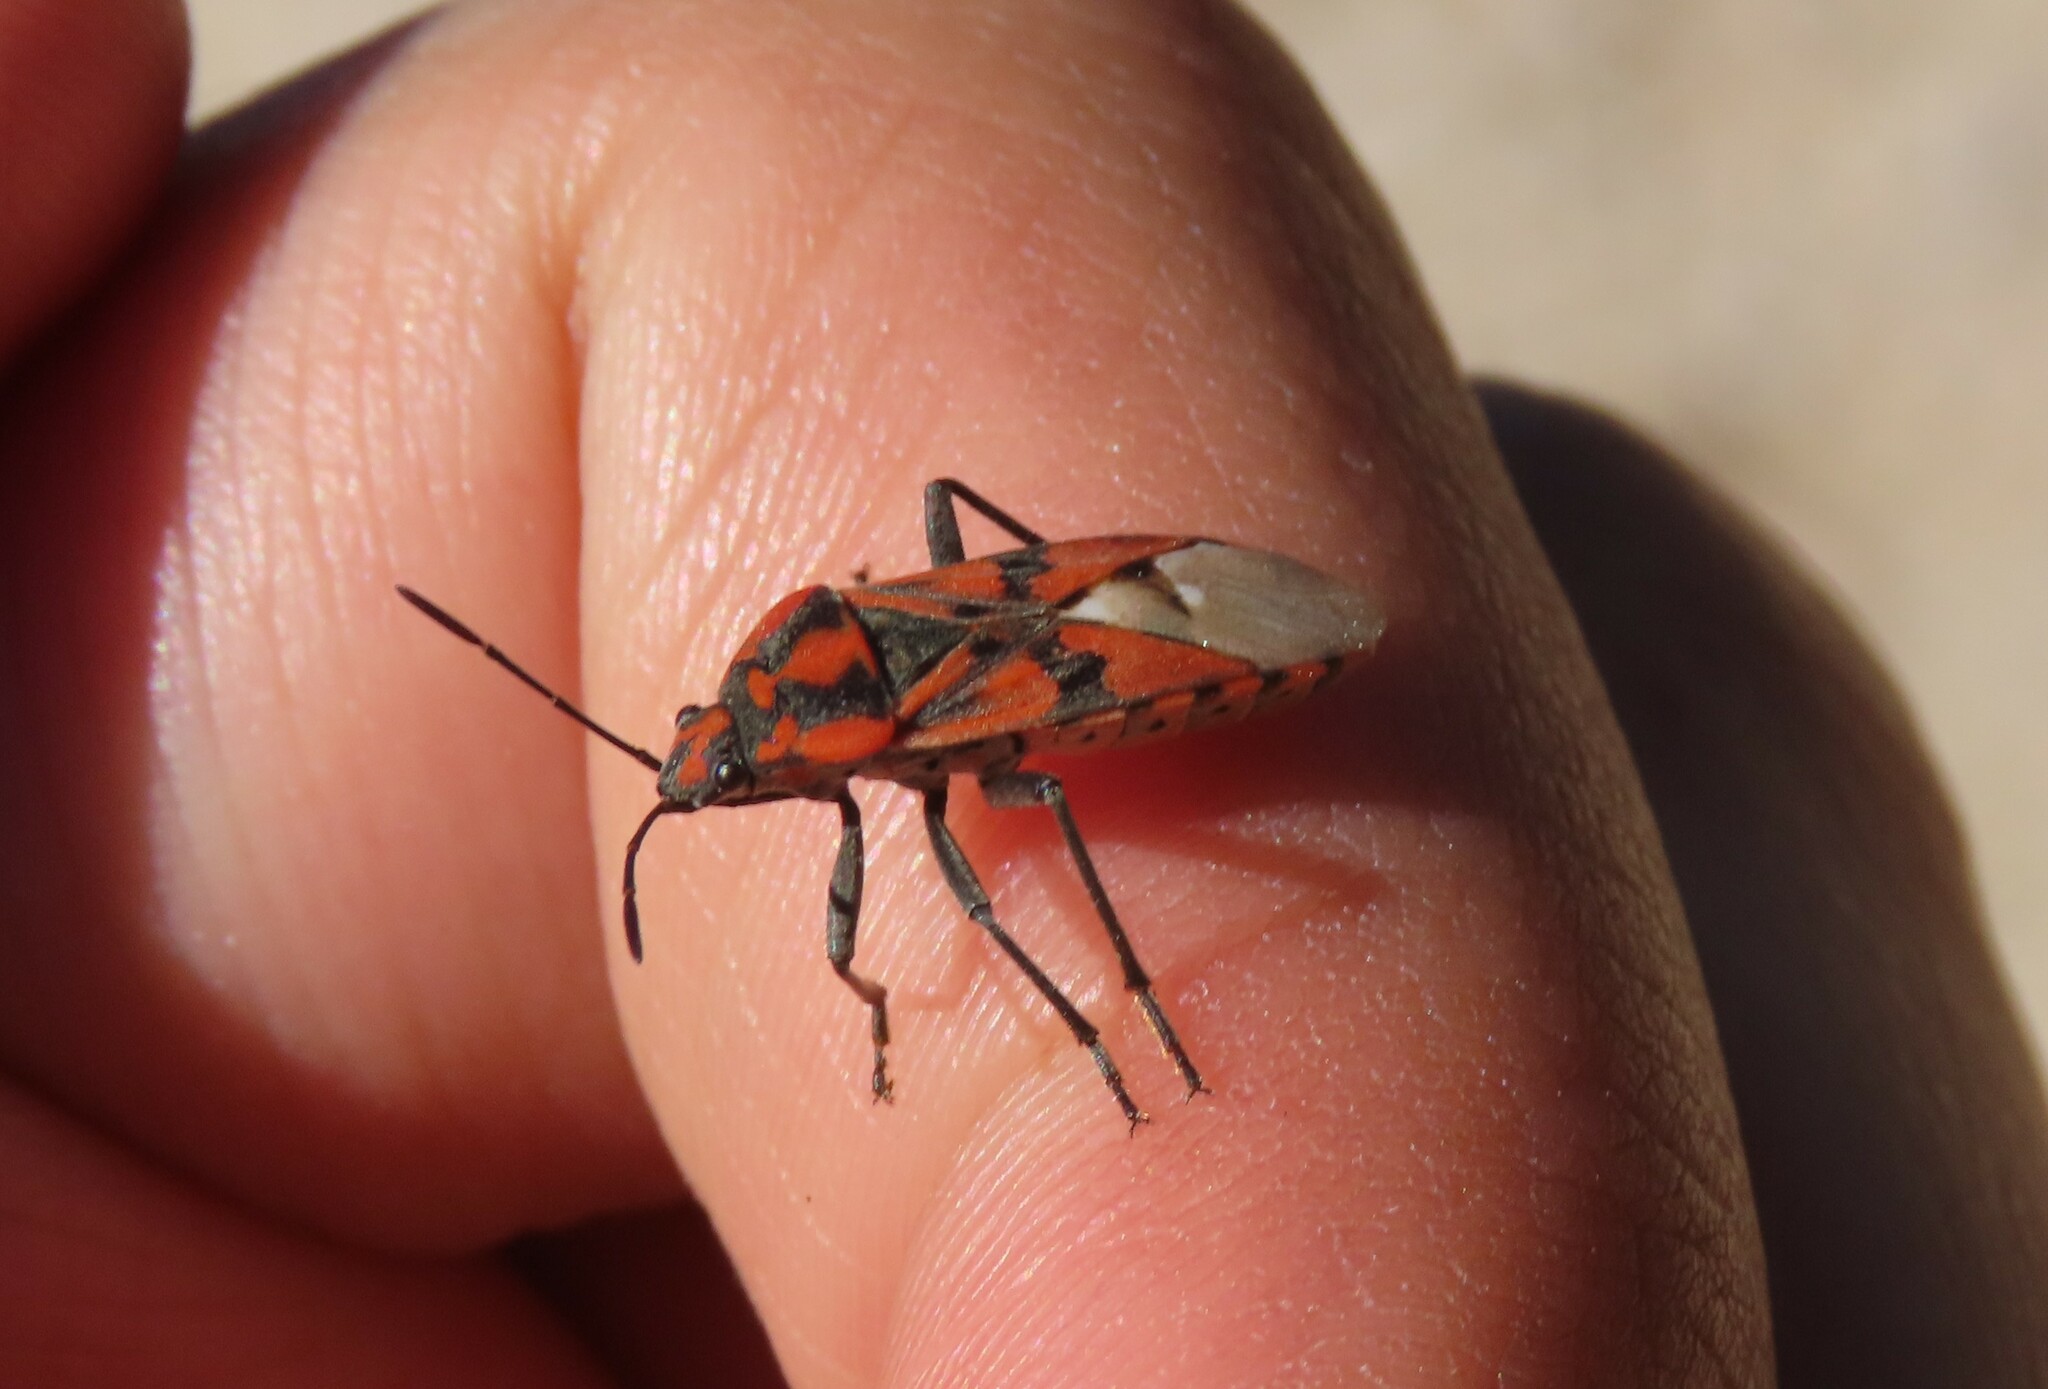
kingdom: Animalia
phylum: Arthropoda
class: Insecta
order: Hemiptera
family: Lygaeidae
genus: Spilostethus
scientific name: Spilostethus pandurus
